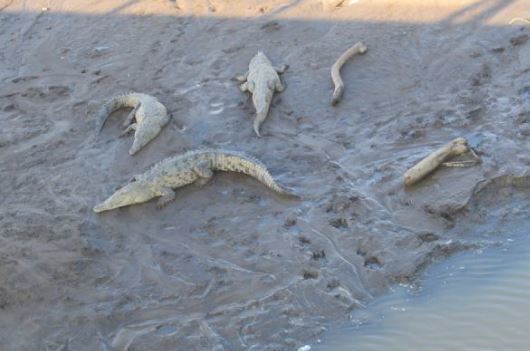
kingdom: Animalia
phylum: Chordata
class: Crocodylia
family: Crocodylidae
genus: Crocodylus
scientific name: Crocodylus acutus
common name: American crocodile
